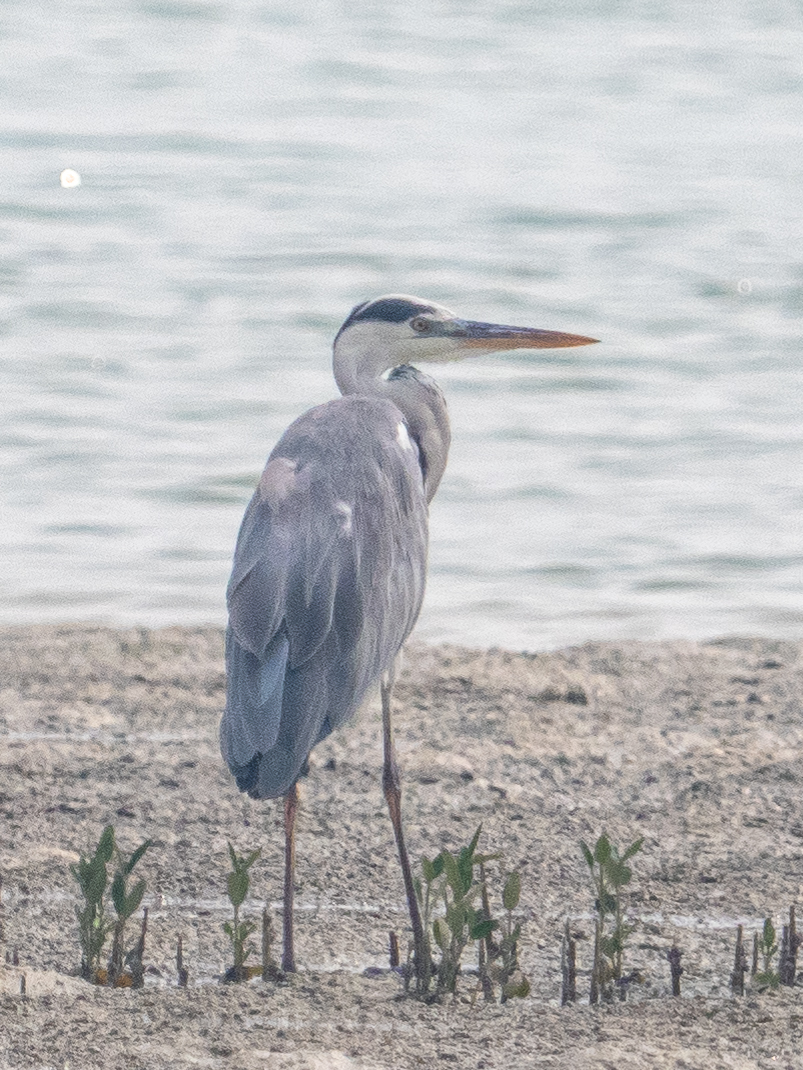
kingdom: Animalia
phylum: Chordata
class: Aves
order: Pelecaniformes
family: Ardeidae
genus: Ardea
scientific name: Ardea cinerea
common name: Grey heron
